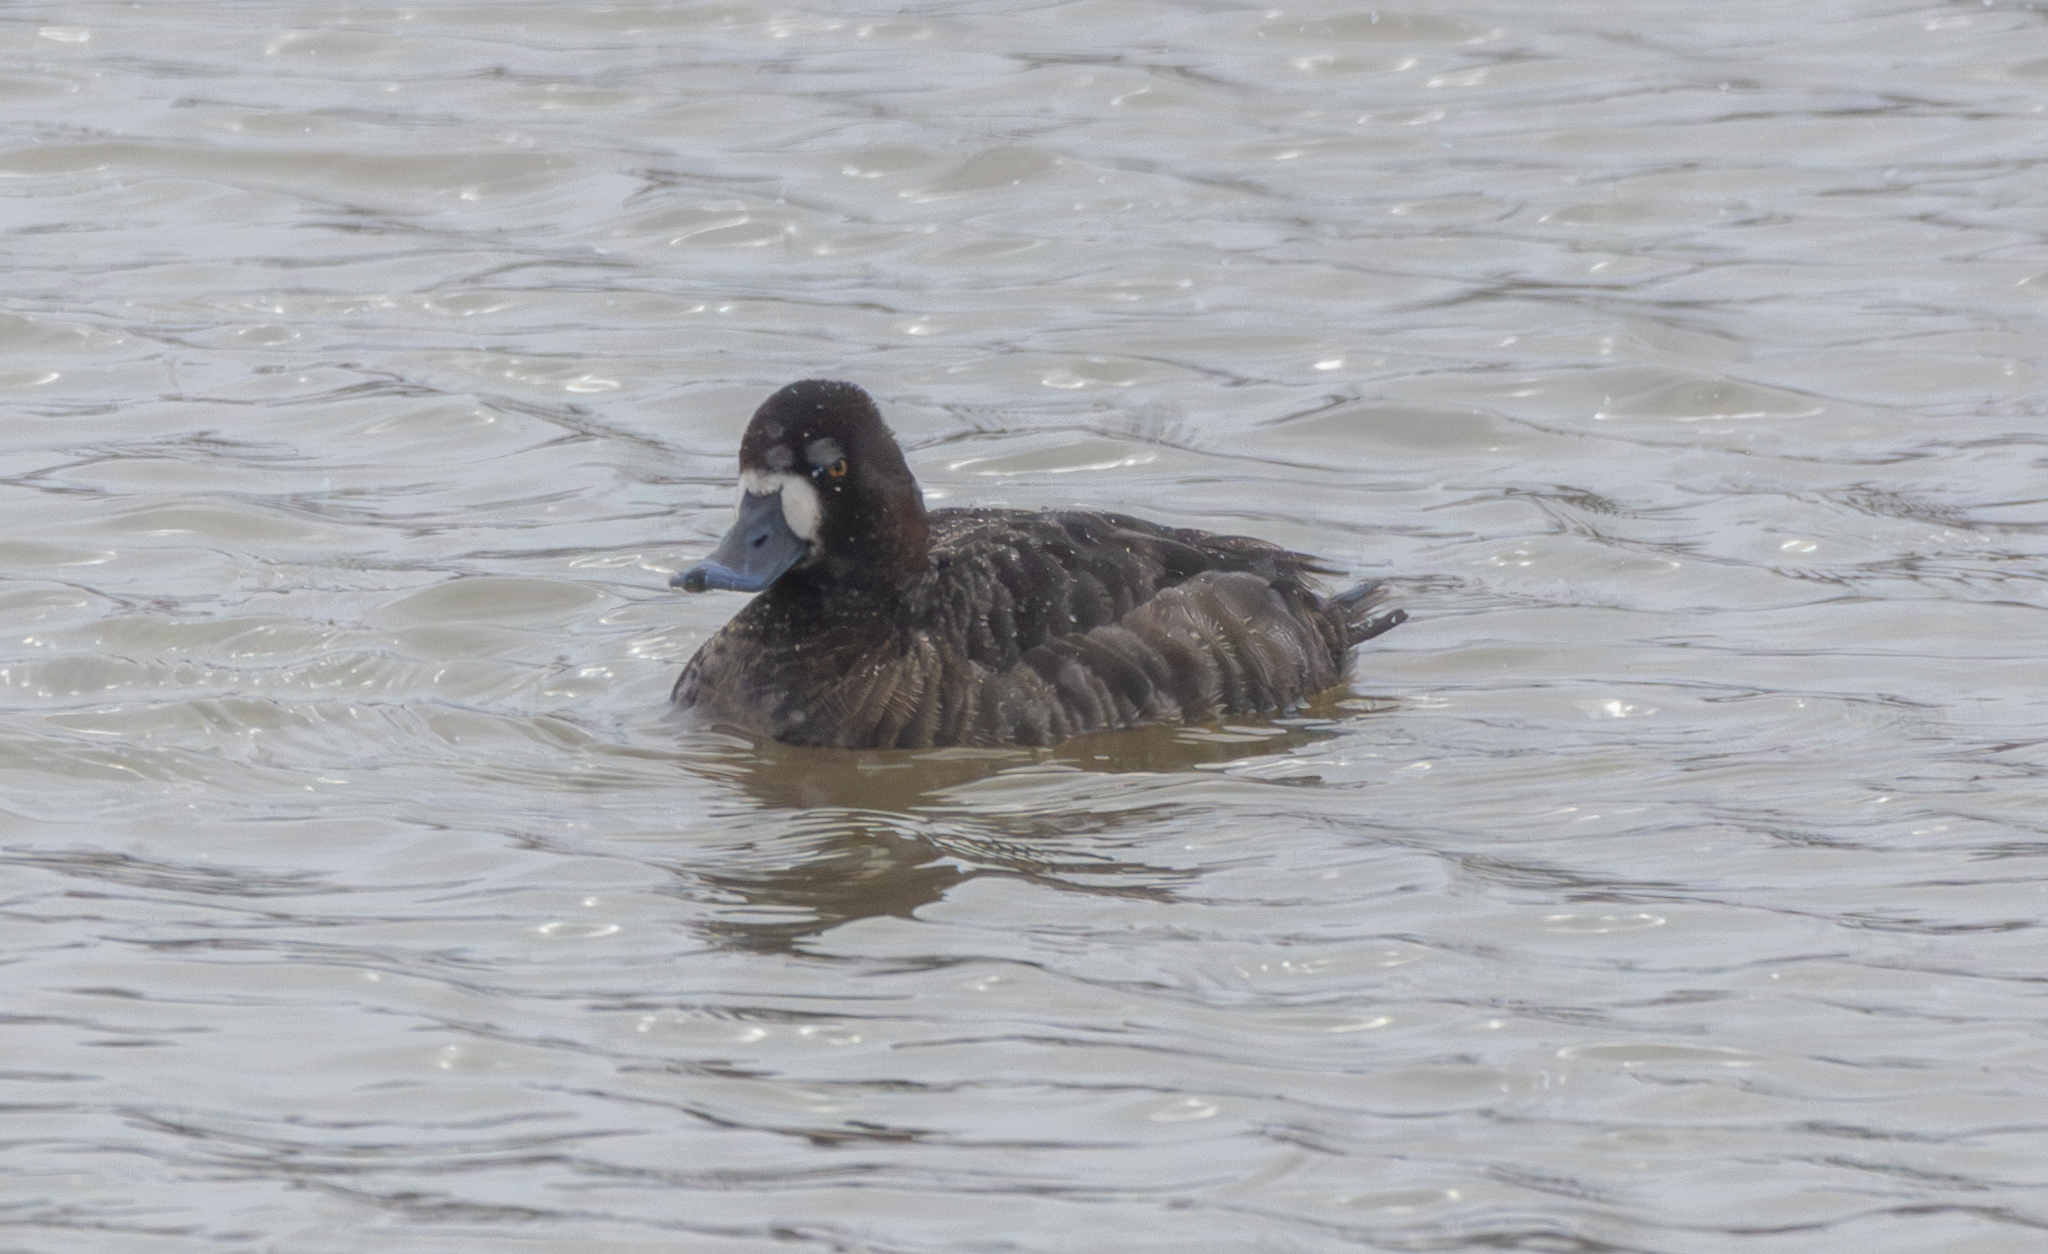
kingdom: Animalia
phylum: Chordata
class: Aves
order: Anseriformes
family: Anatidae
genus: Aythya
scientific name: Aythya marila
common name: Greater scaup
